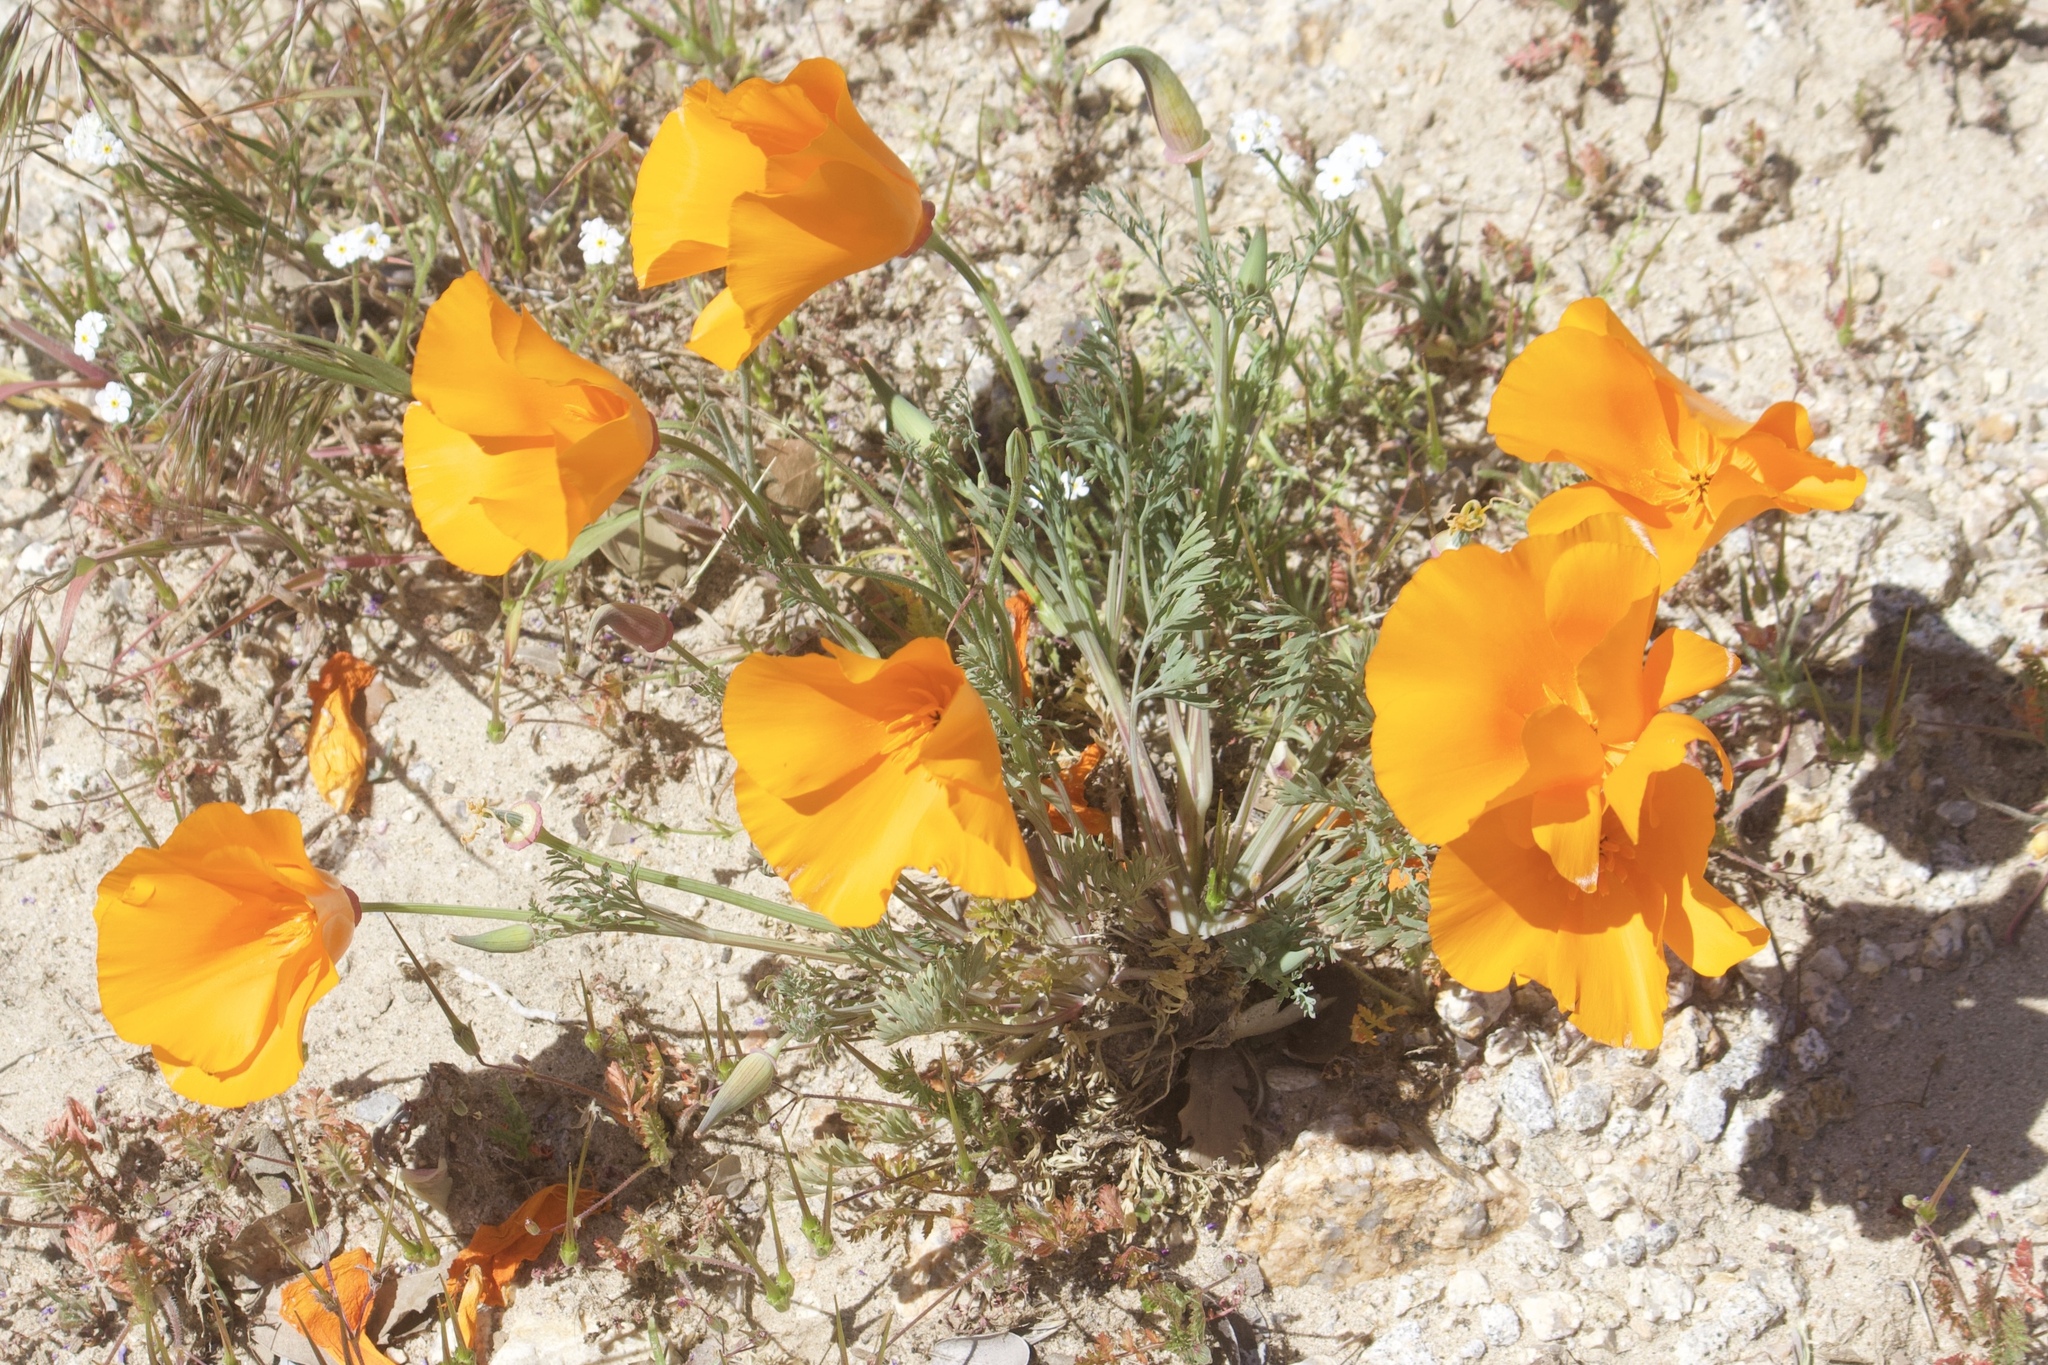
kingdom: Plantae
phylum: Tracheophyta
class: Magnoliopsida
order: Ranunculales
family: Papaveraceae
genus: Eschscholzia
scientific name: Eschscholzia californica
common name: California poppy
